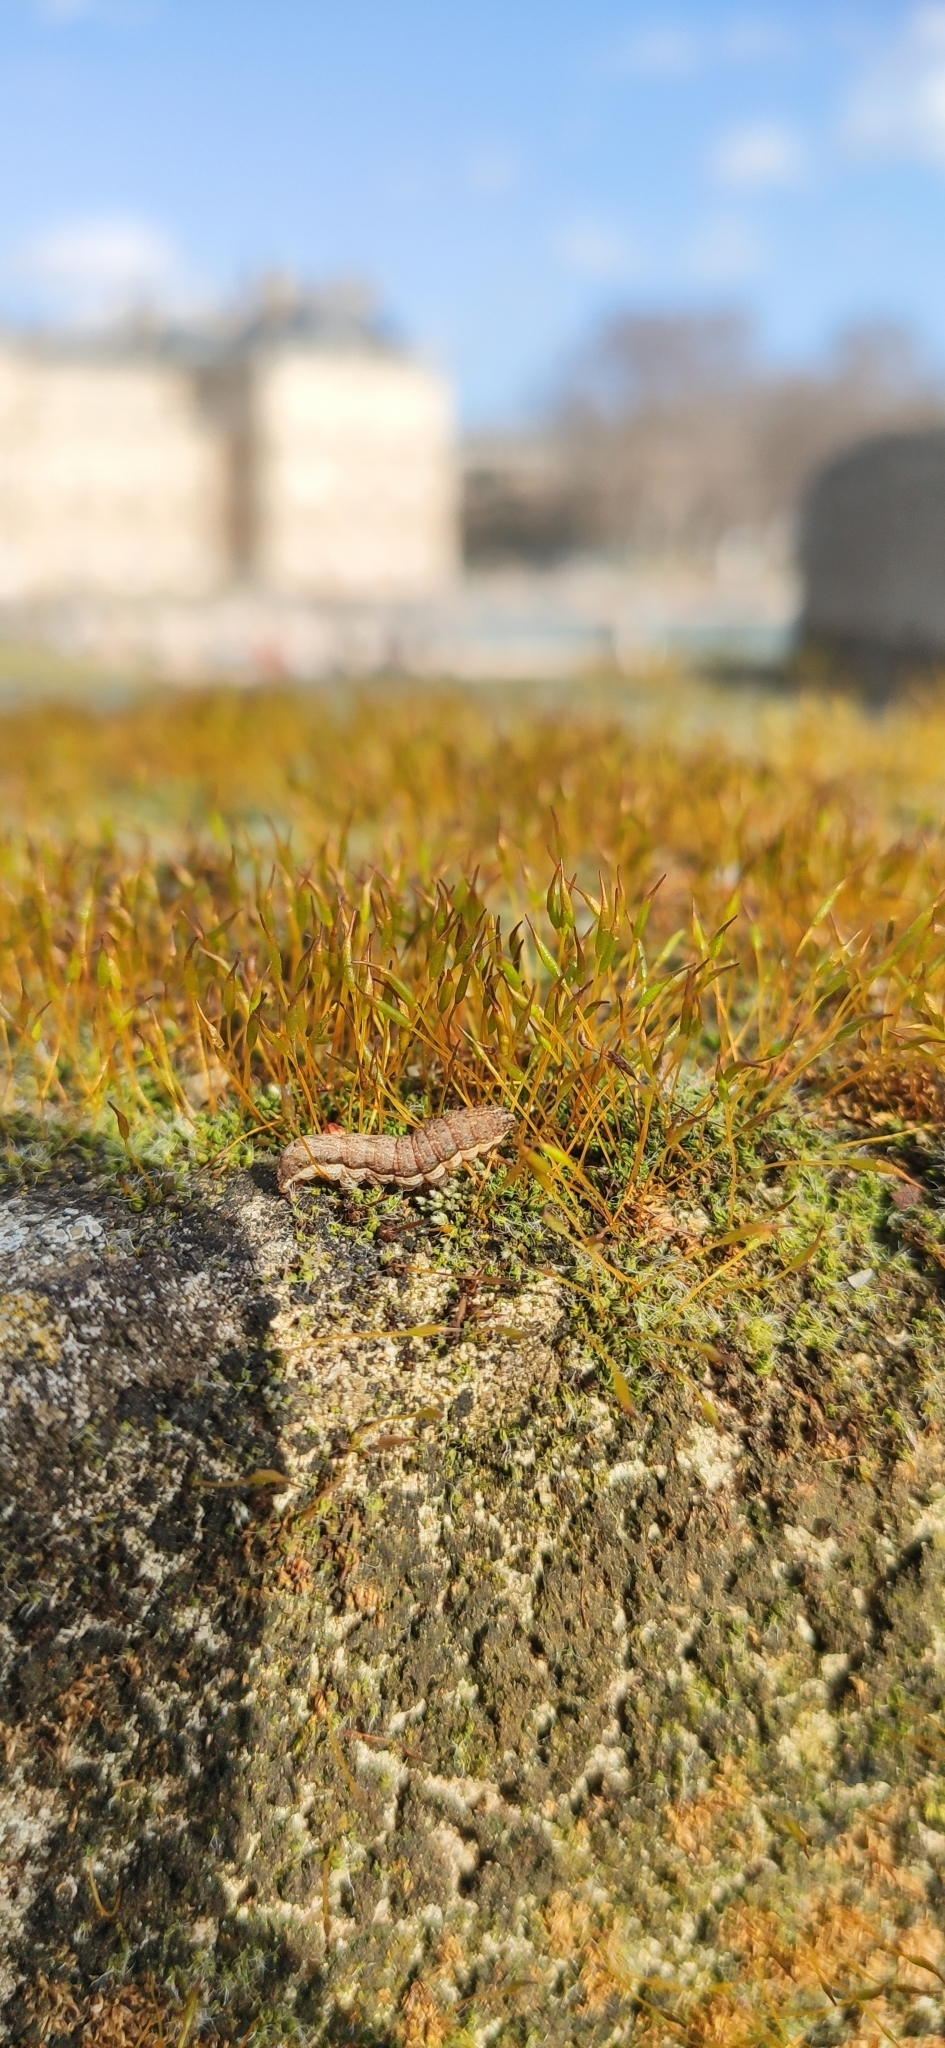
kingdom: Plantae
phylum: Bryophyta
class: Bryopsida
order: Pottiales
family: Pottiaceae
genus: Tortula
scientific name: Tortula muralis
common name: Wall screw-moss
